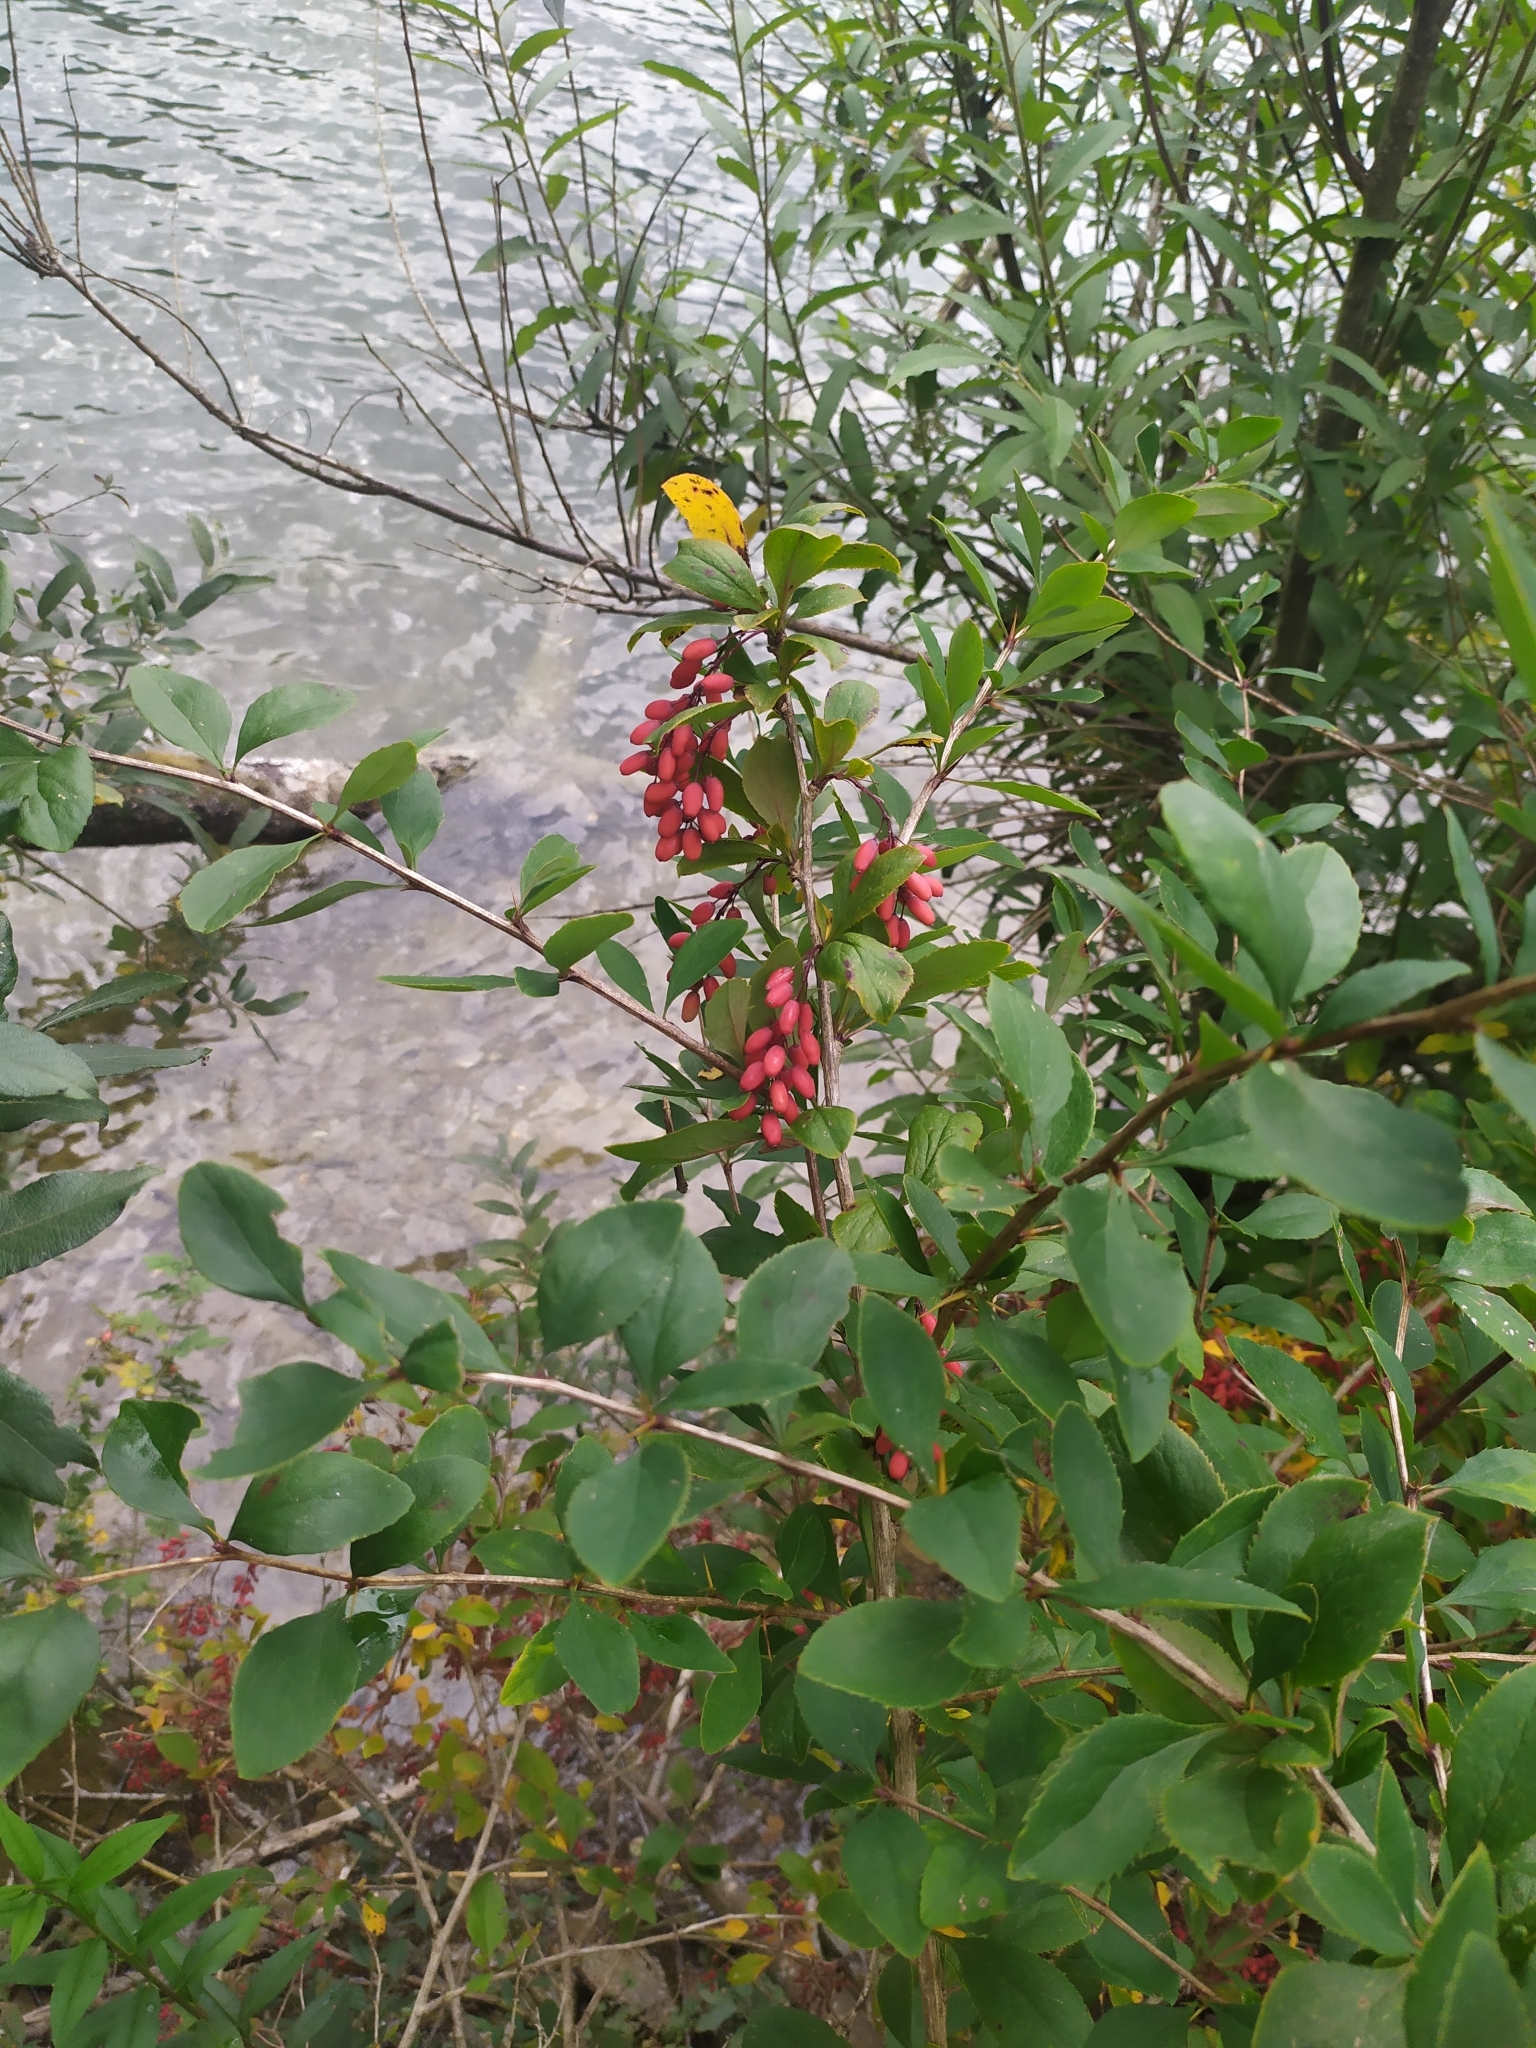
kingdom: Plantae
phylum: Tracheophyta
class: Magnoliopsida
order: Ranunculales
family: Berberidaceae
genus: Berberis
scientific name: Berberis vulgaris
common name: Barberry
